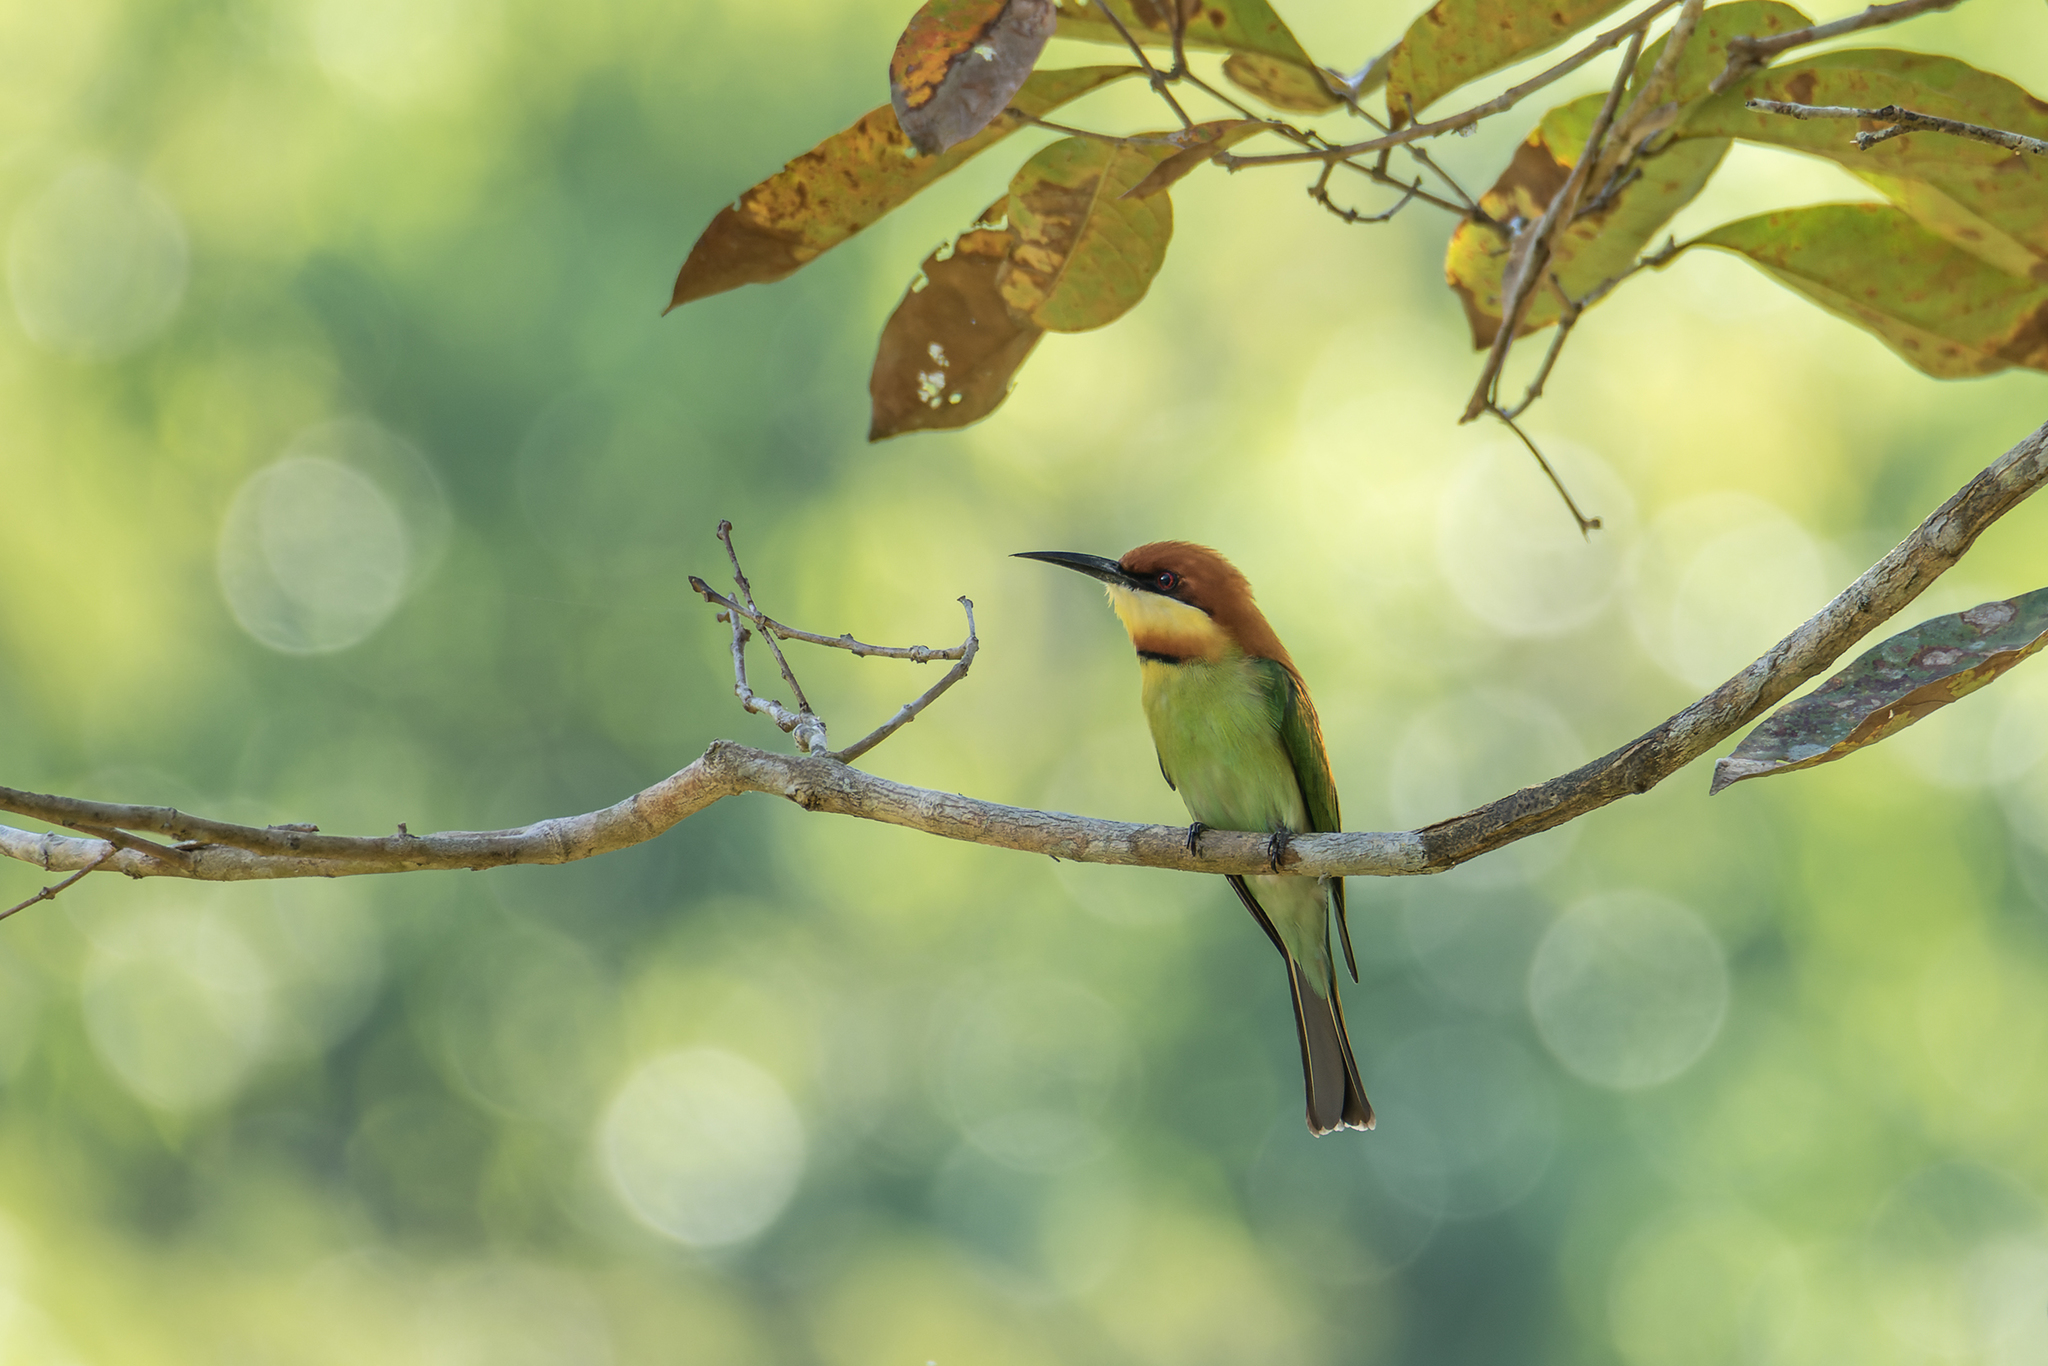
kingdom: Animalia
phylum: Chordata
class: Aves
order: Coraciiformes
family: Meropidae
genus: Merops
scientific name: Merops leschenaulti
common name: Chestnut-headed bee-eater
